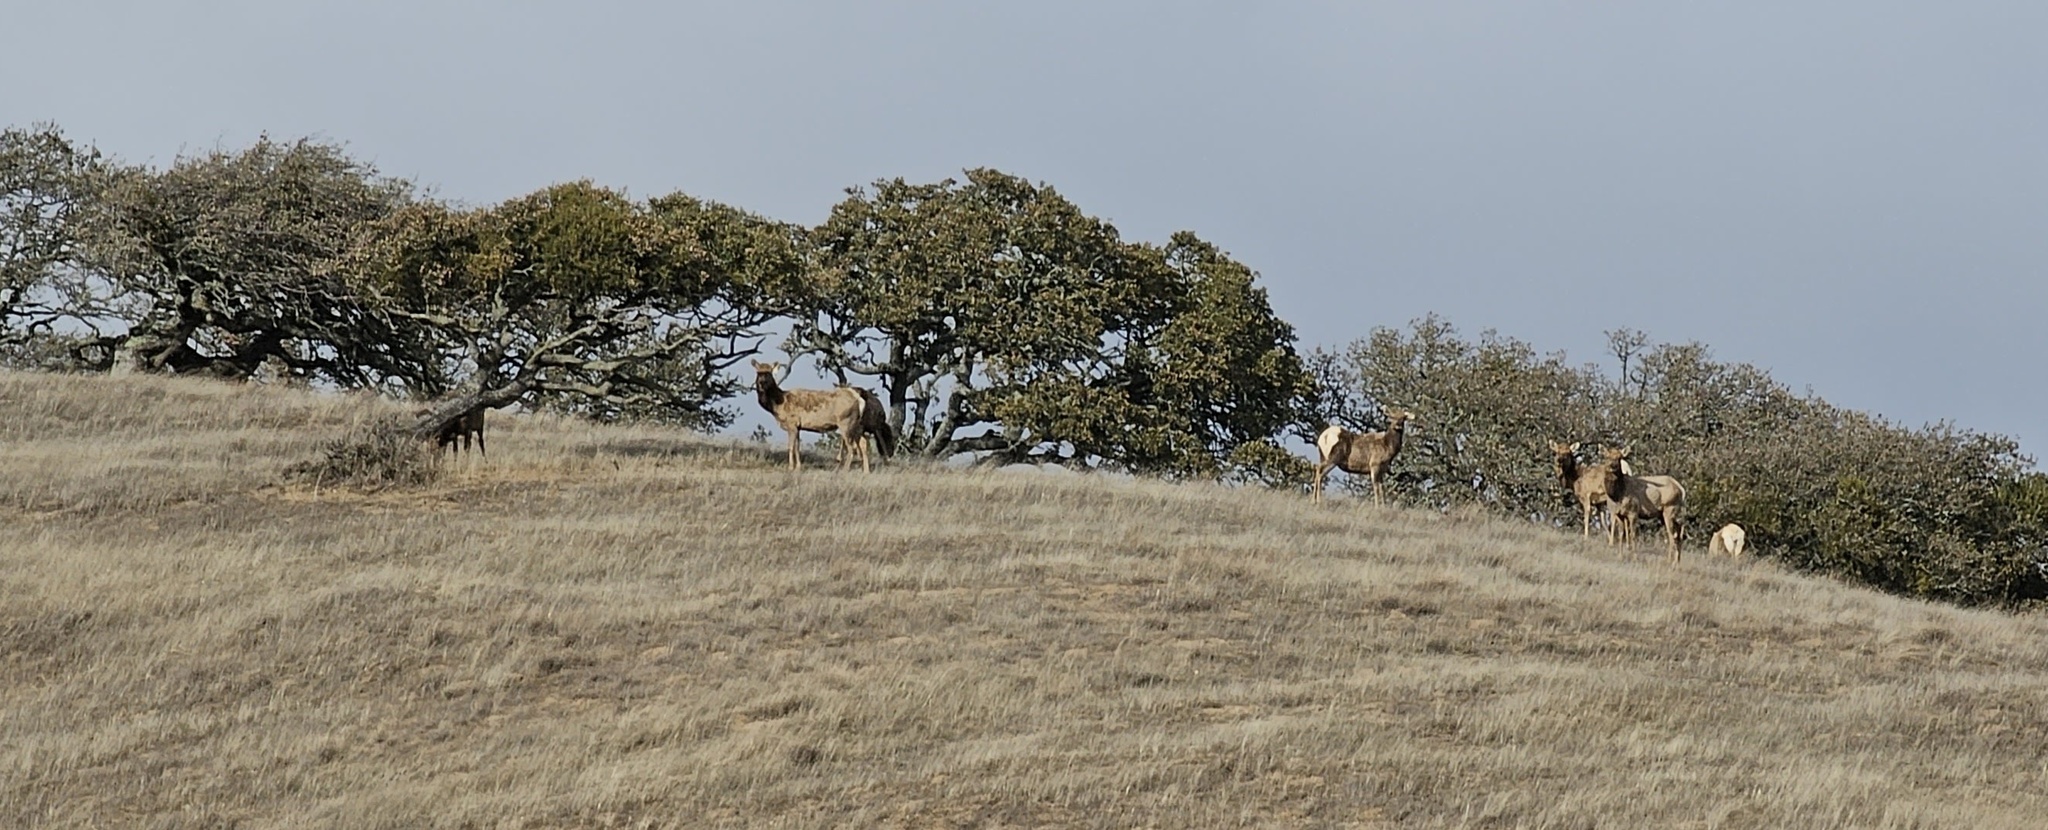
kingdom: Animalia
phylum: Chordata
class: Mammalia
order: Artiodactyla
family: Cervidae
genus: Cervus
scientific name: Cervus elaphus
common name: Red deer
